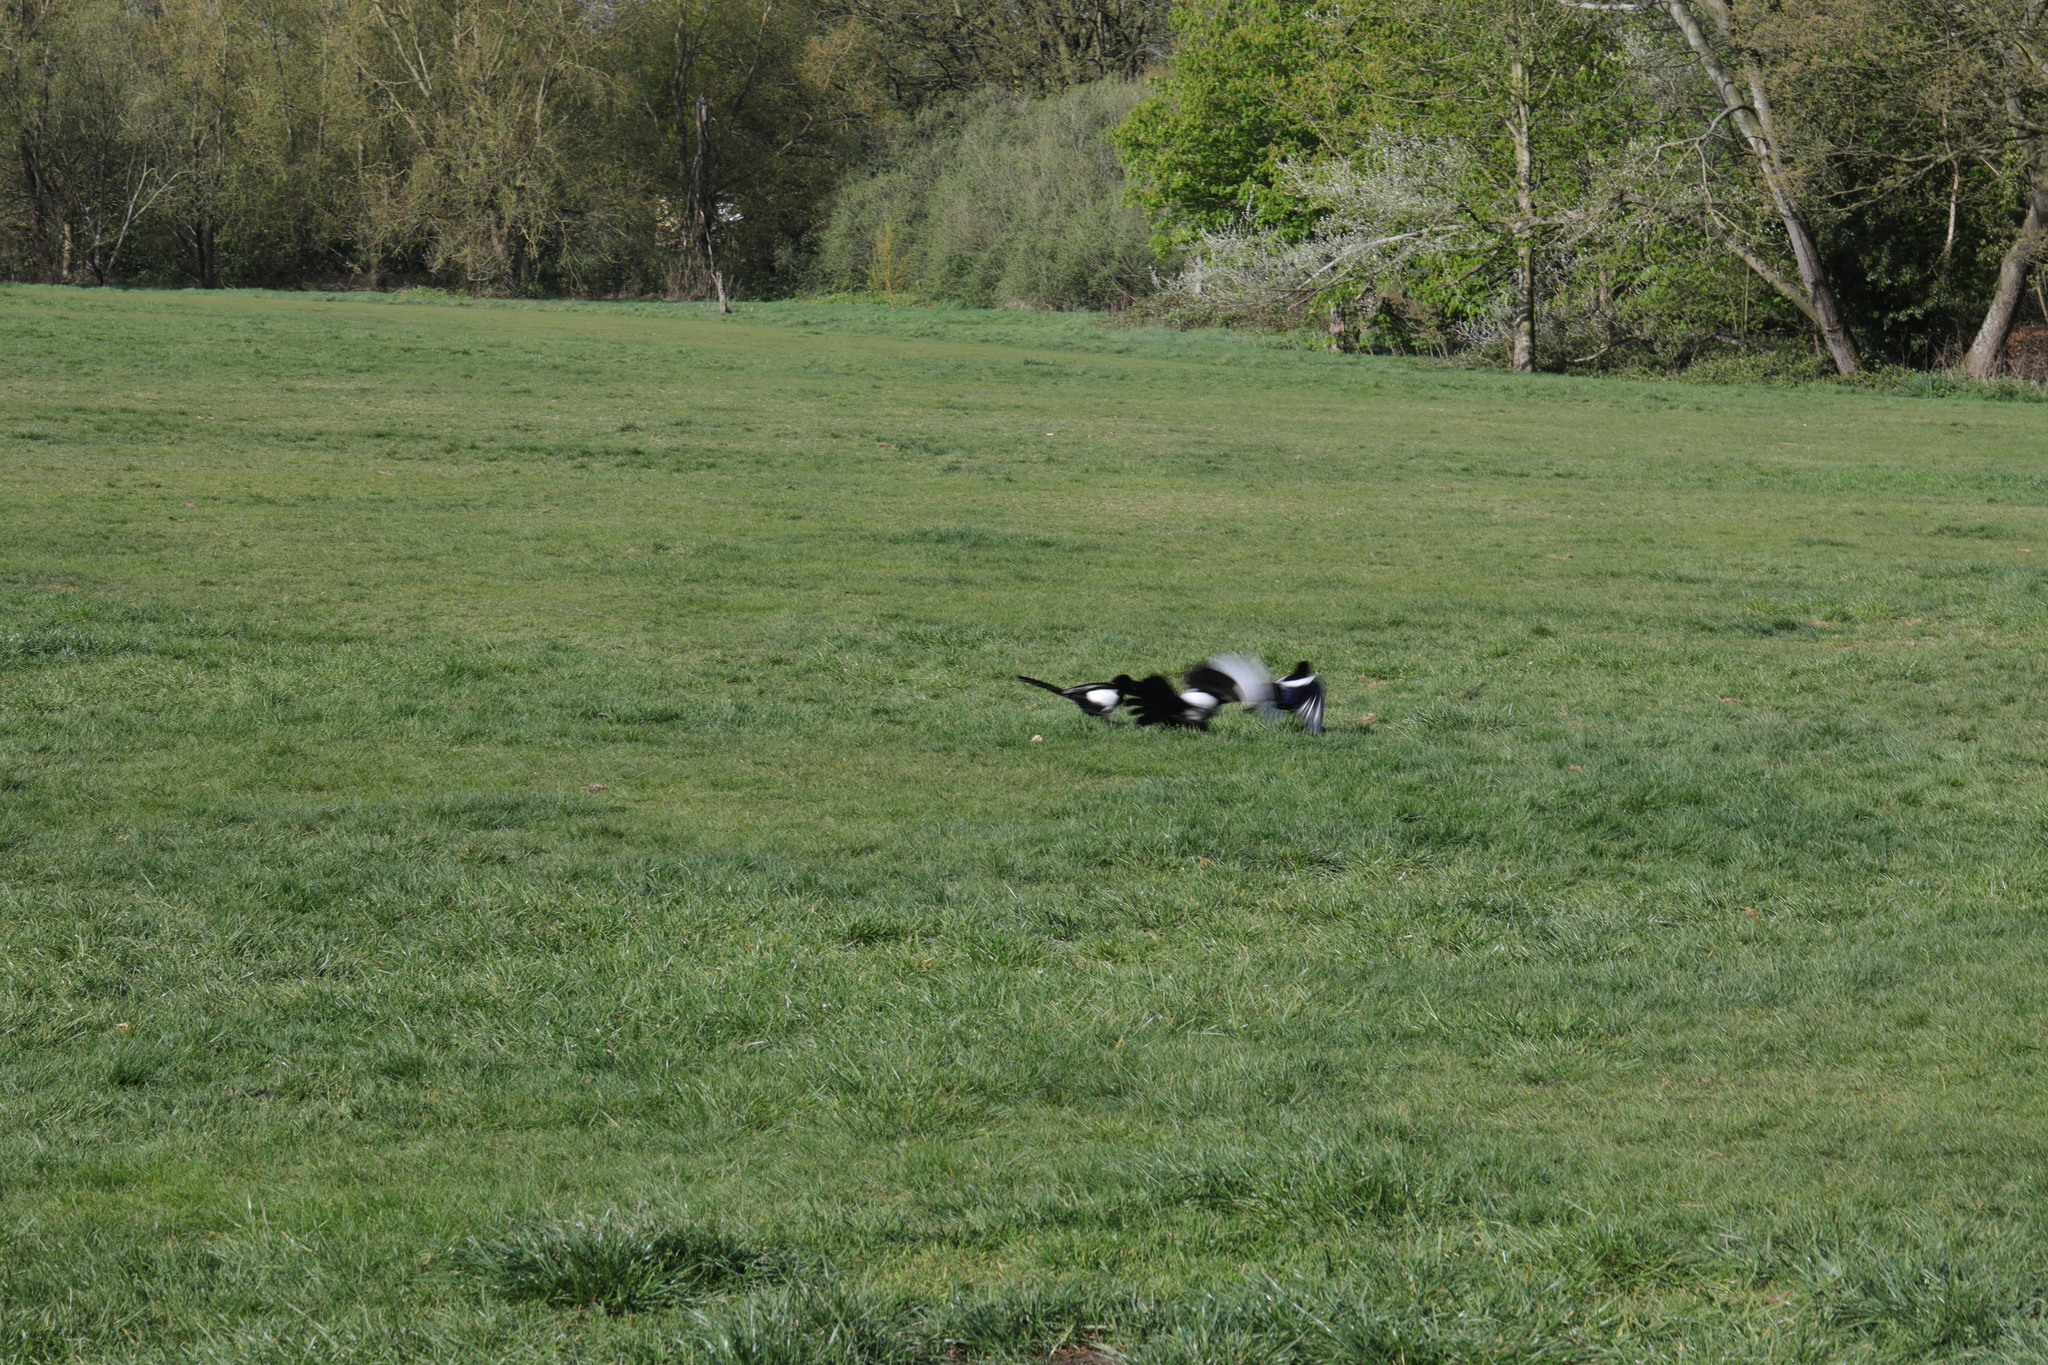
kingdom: Animalia
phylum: Chordata
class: Aves
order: Passeriformes
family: Corvidae
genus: Pica
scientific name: Pica pica
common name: Eurasian magpie
